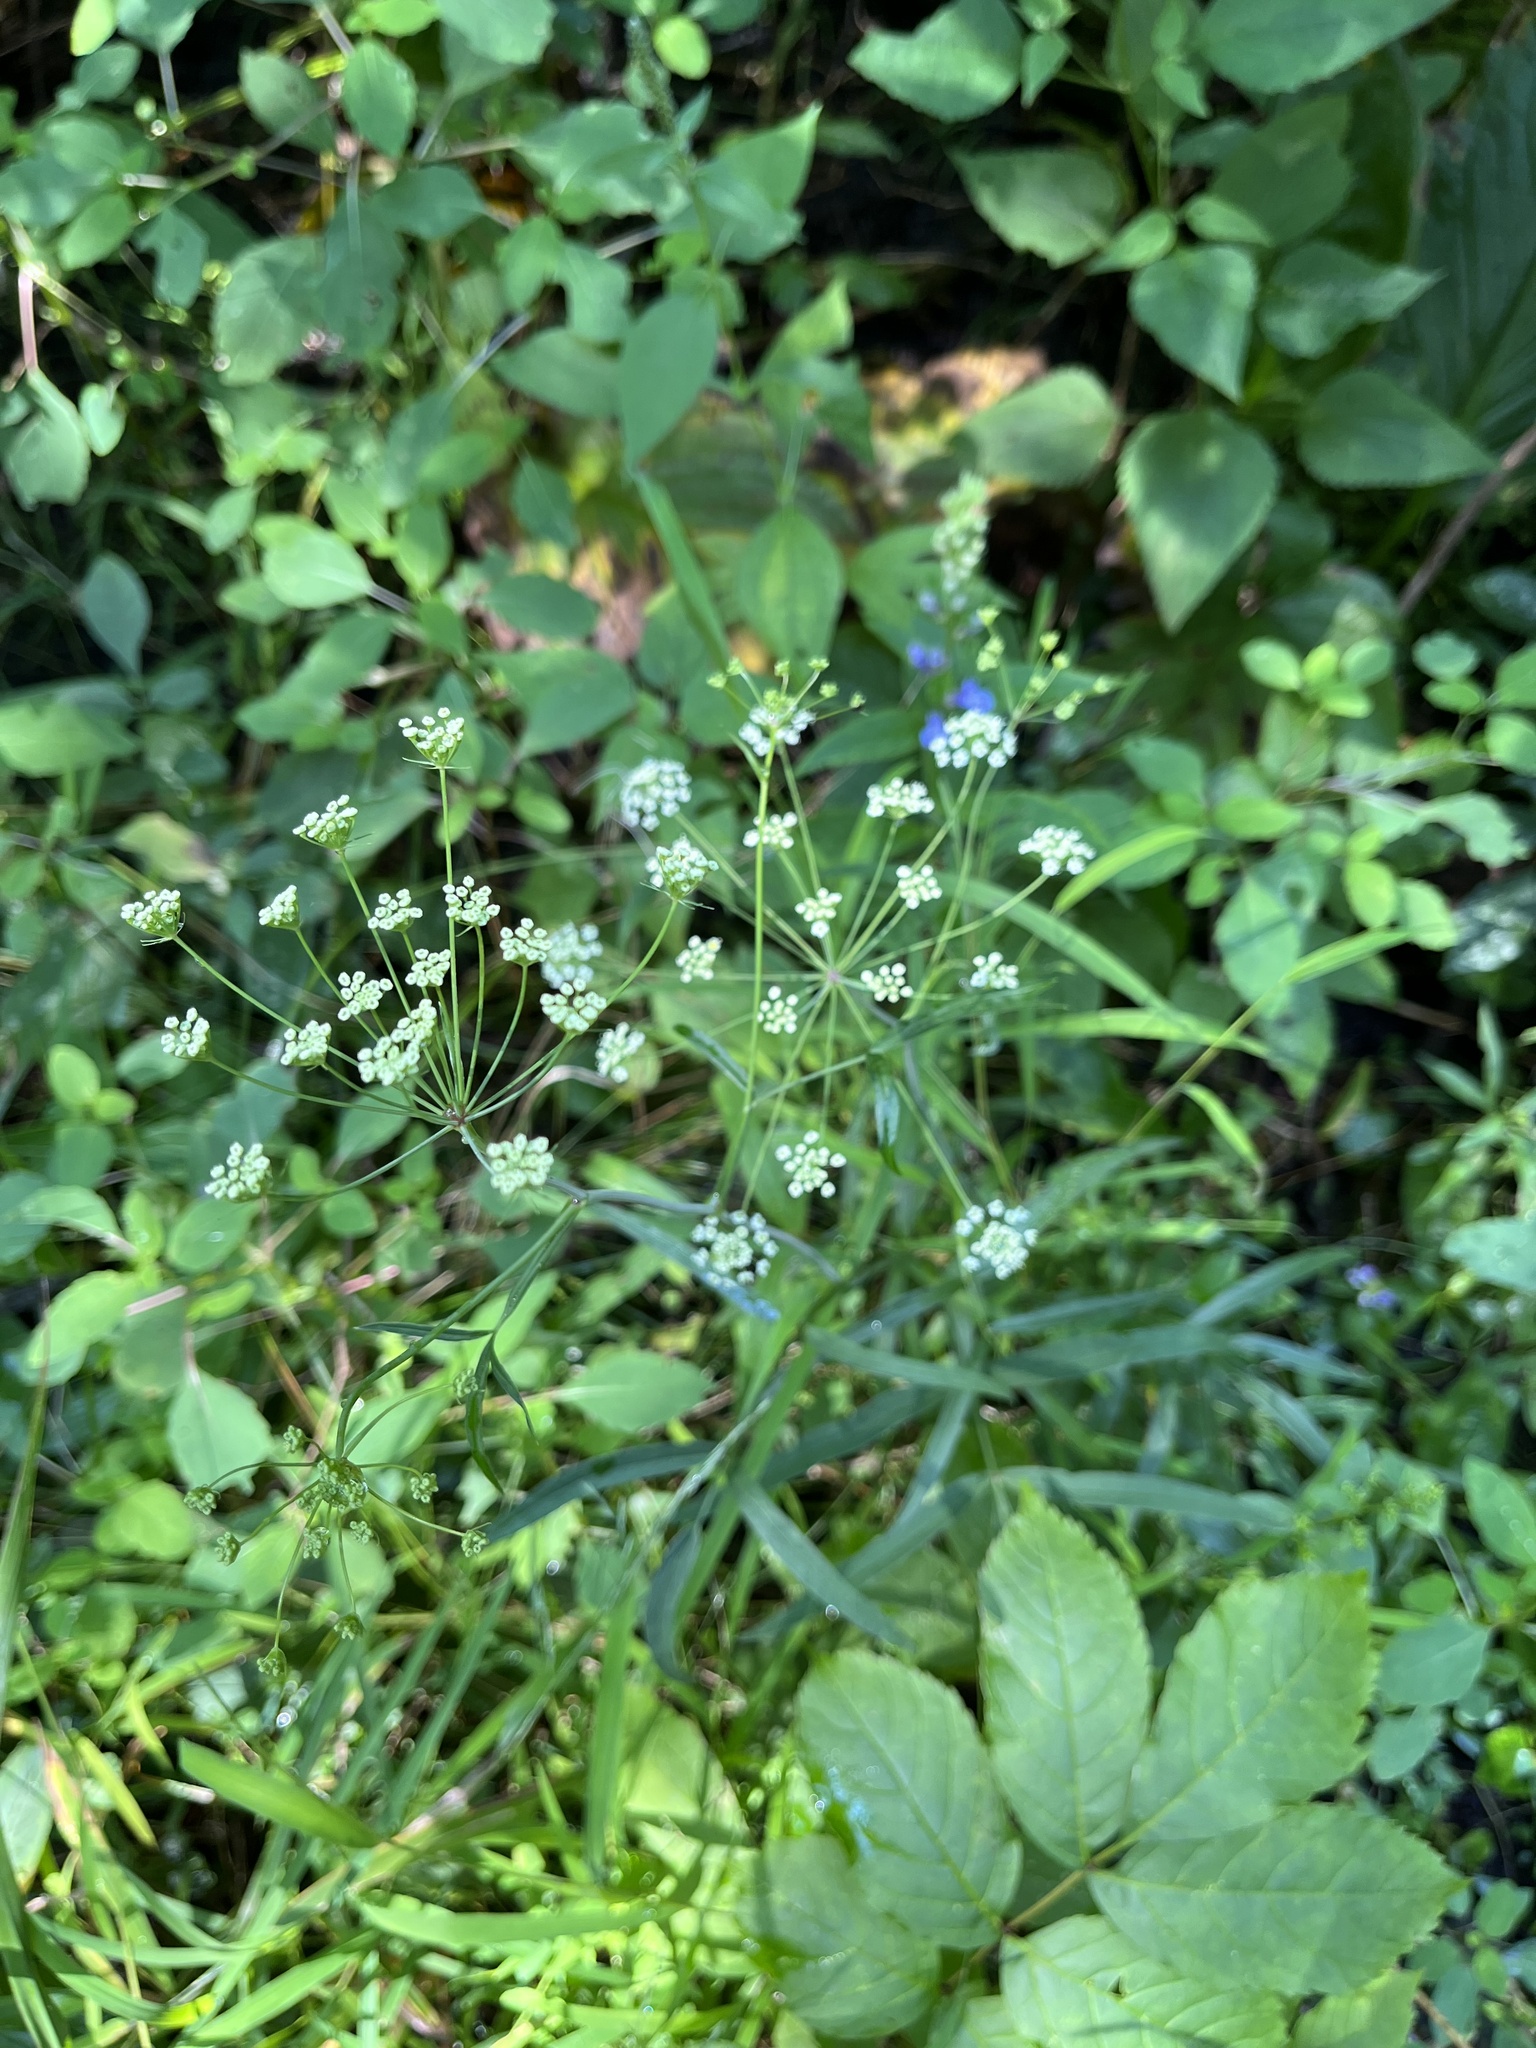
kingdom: Plantae
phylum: Tracheophyta
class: Magnoliopsida
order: Apiales
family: Apiaceae
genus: Oxypolis
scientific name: Oxypolis rigidior
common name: Cowbane
